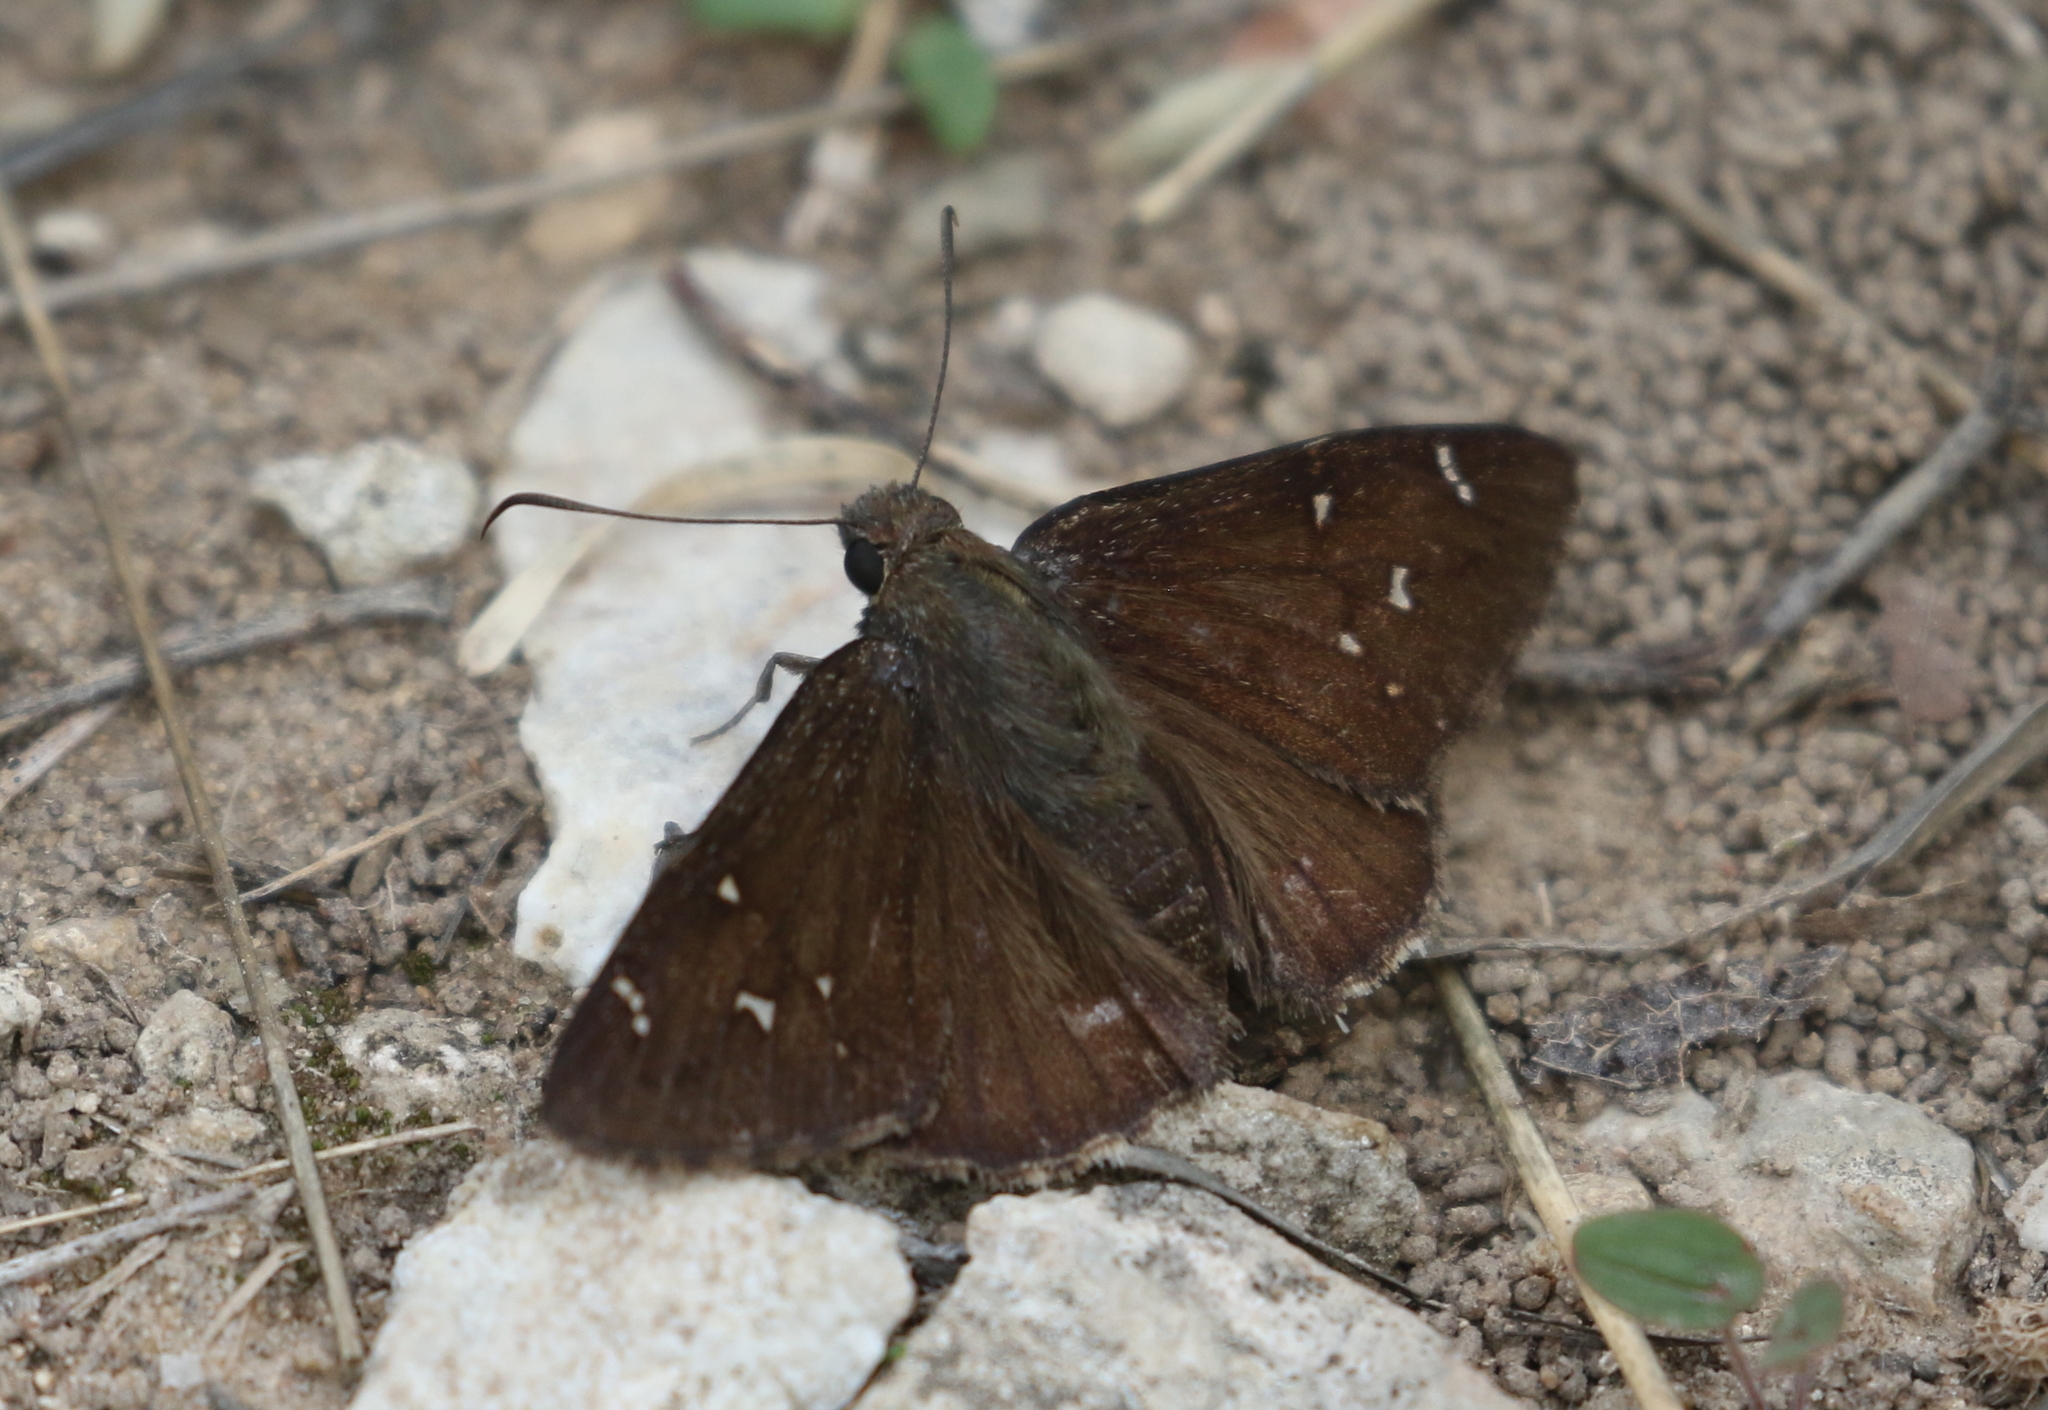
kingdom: Animalia
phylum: Arthropoda
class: Insecta
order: Lepidoptera
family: Hesperiidae
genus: Thorybes
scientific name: Thorybes pylades
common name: Northern cloudywing
